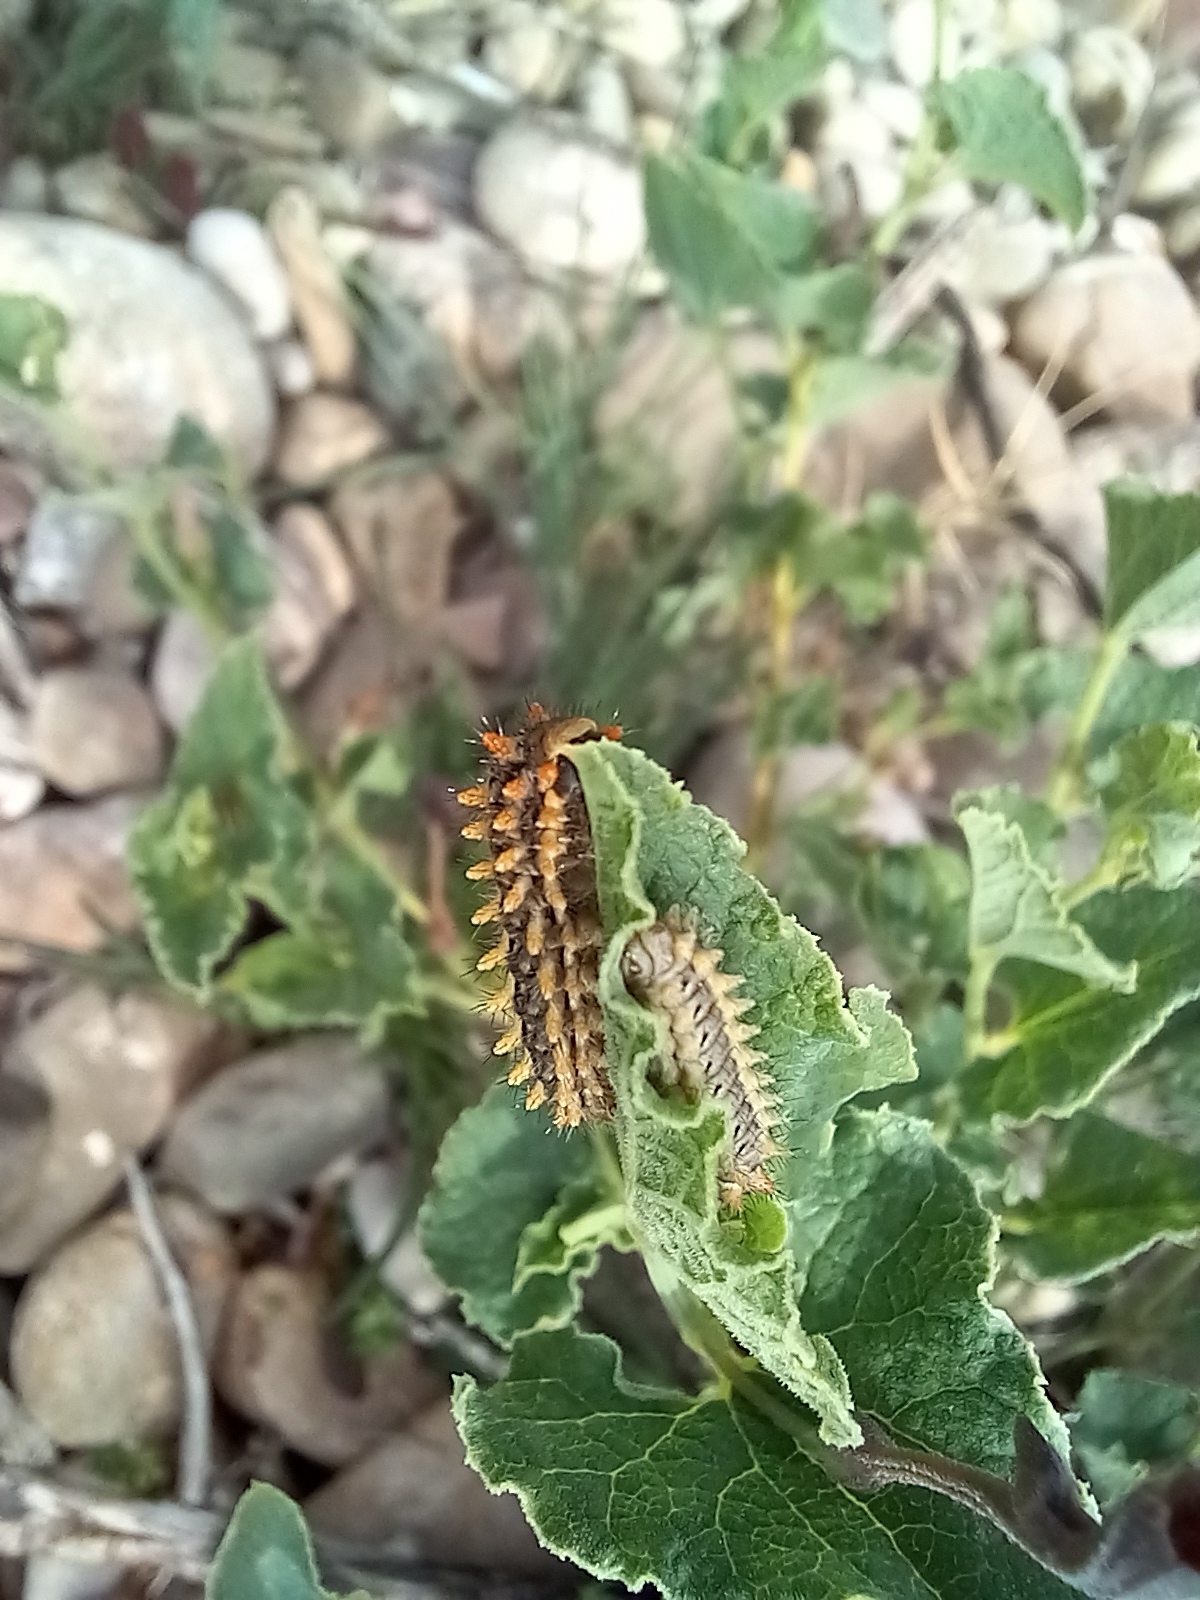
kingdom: Animalia
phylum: Arthropoda
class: Insecta
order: Lepidoptera
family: Papilionidae
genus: Zerynthia
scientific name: Zerynthia rumina
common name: Spanish festoon
